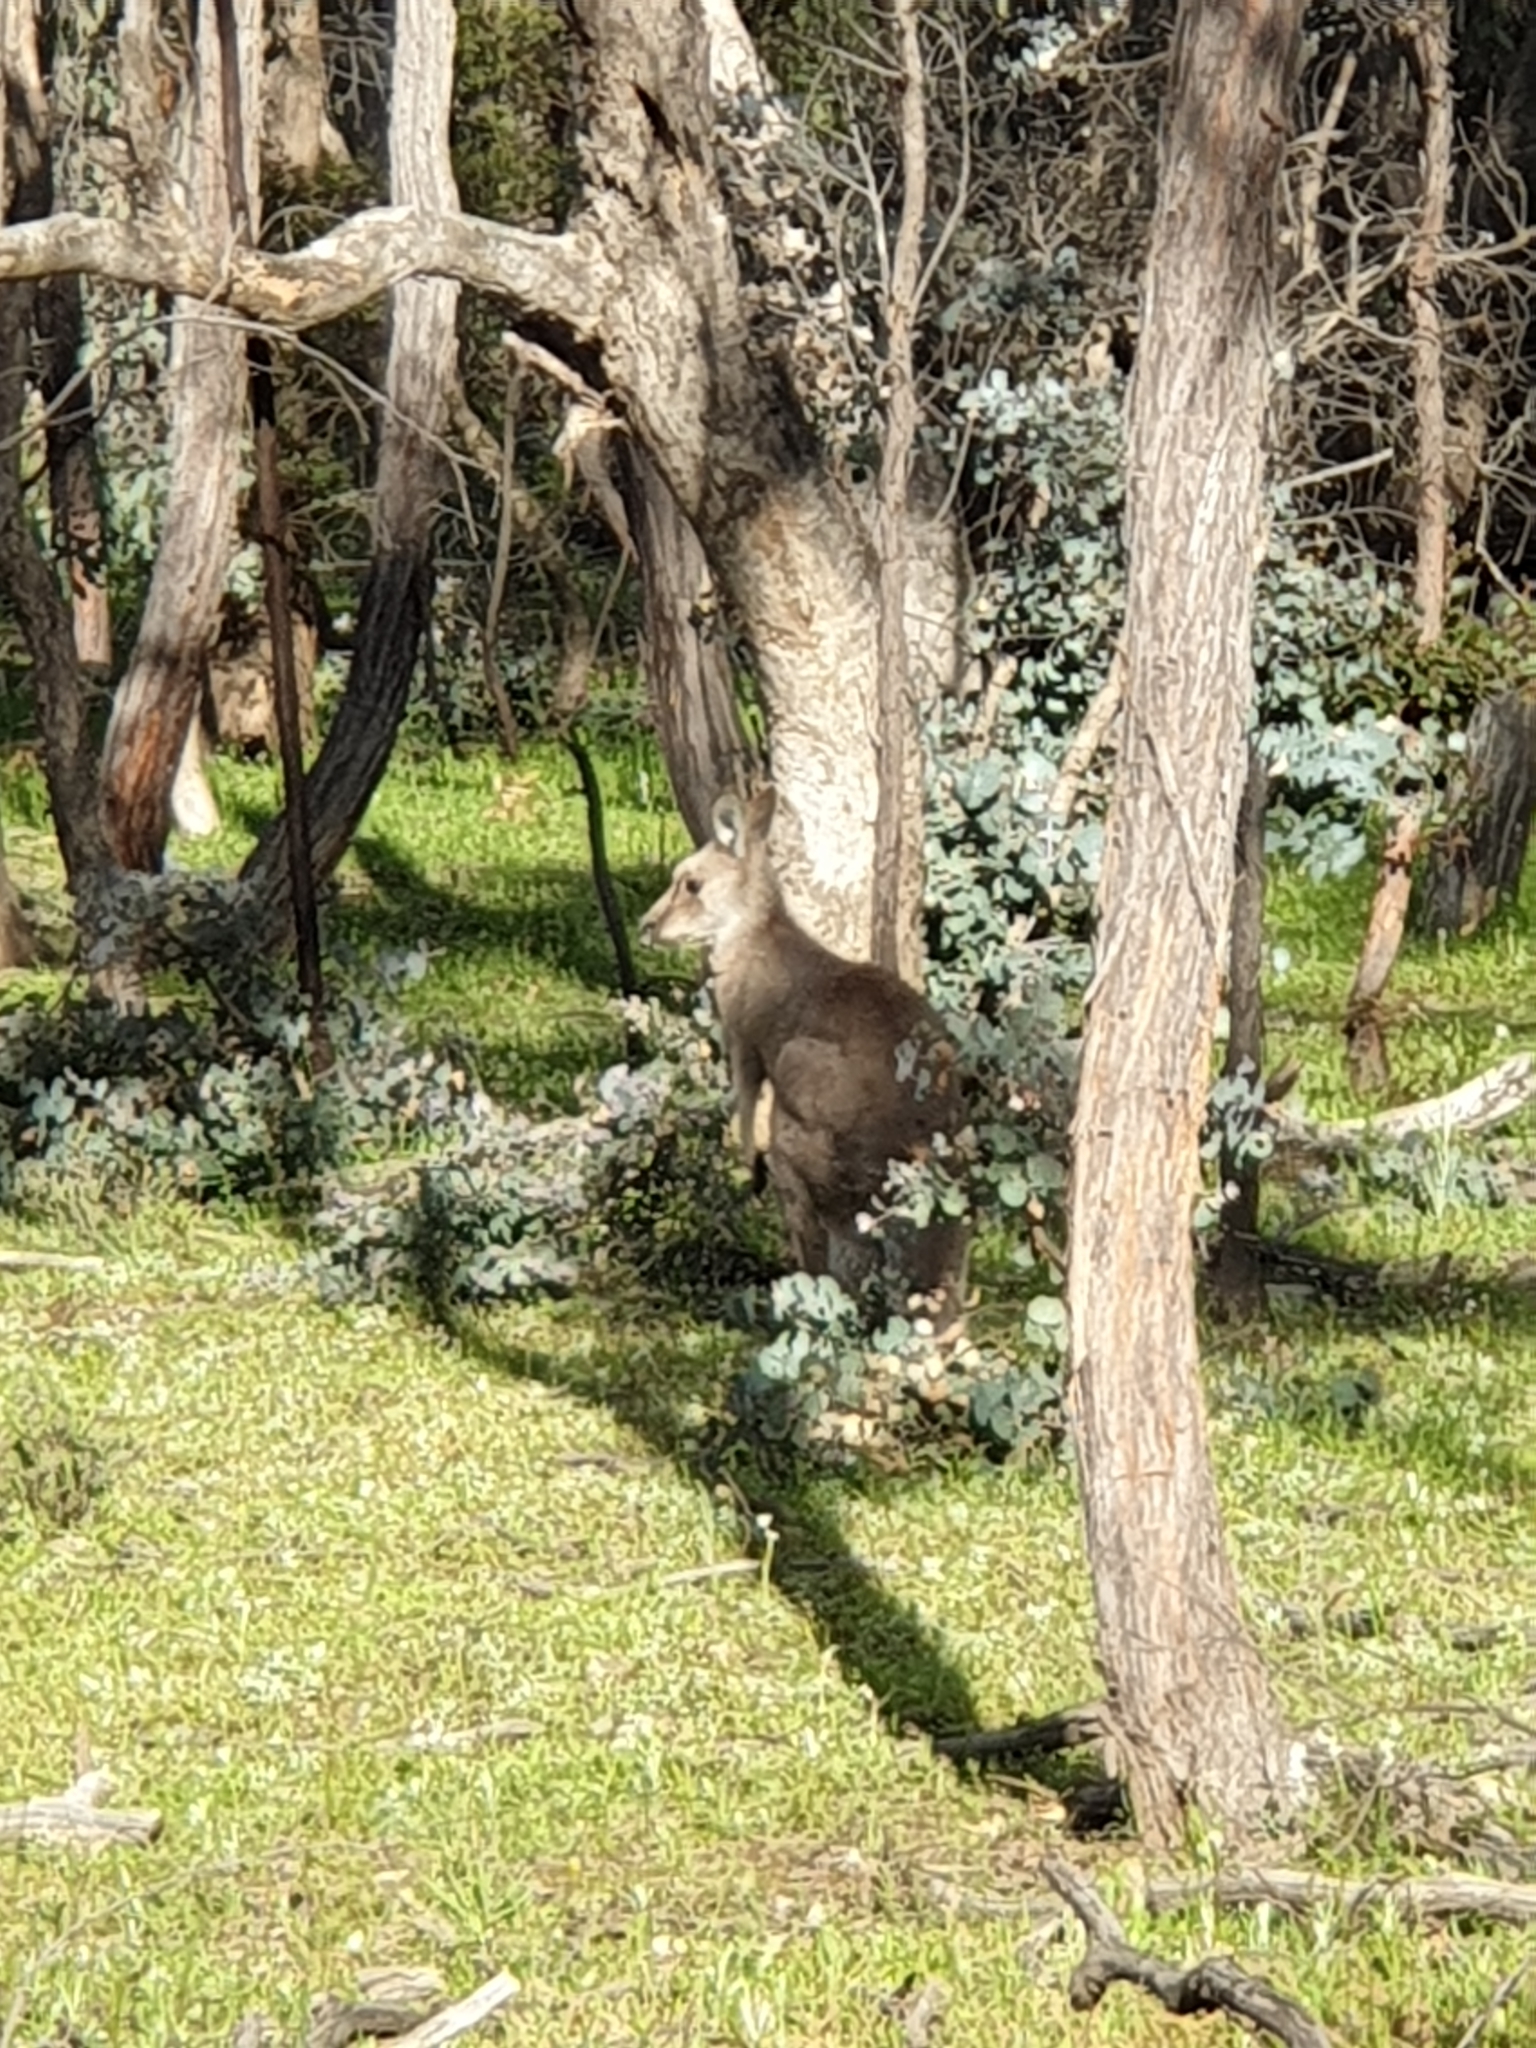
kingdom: Animalia
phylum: Chordata
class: Mammalia
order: Diprotodontia
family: Macropodidae
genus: Macropus
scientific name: Macropus giganteus
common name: Eastern grey kangaroo
